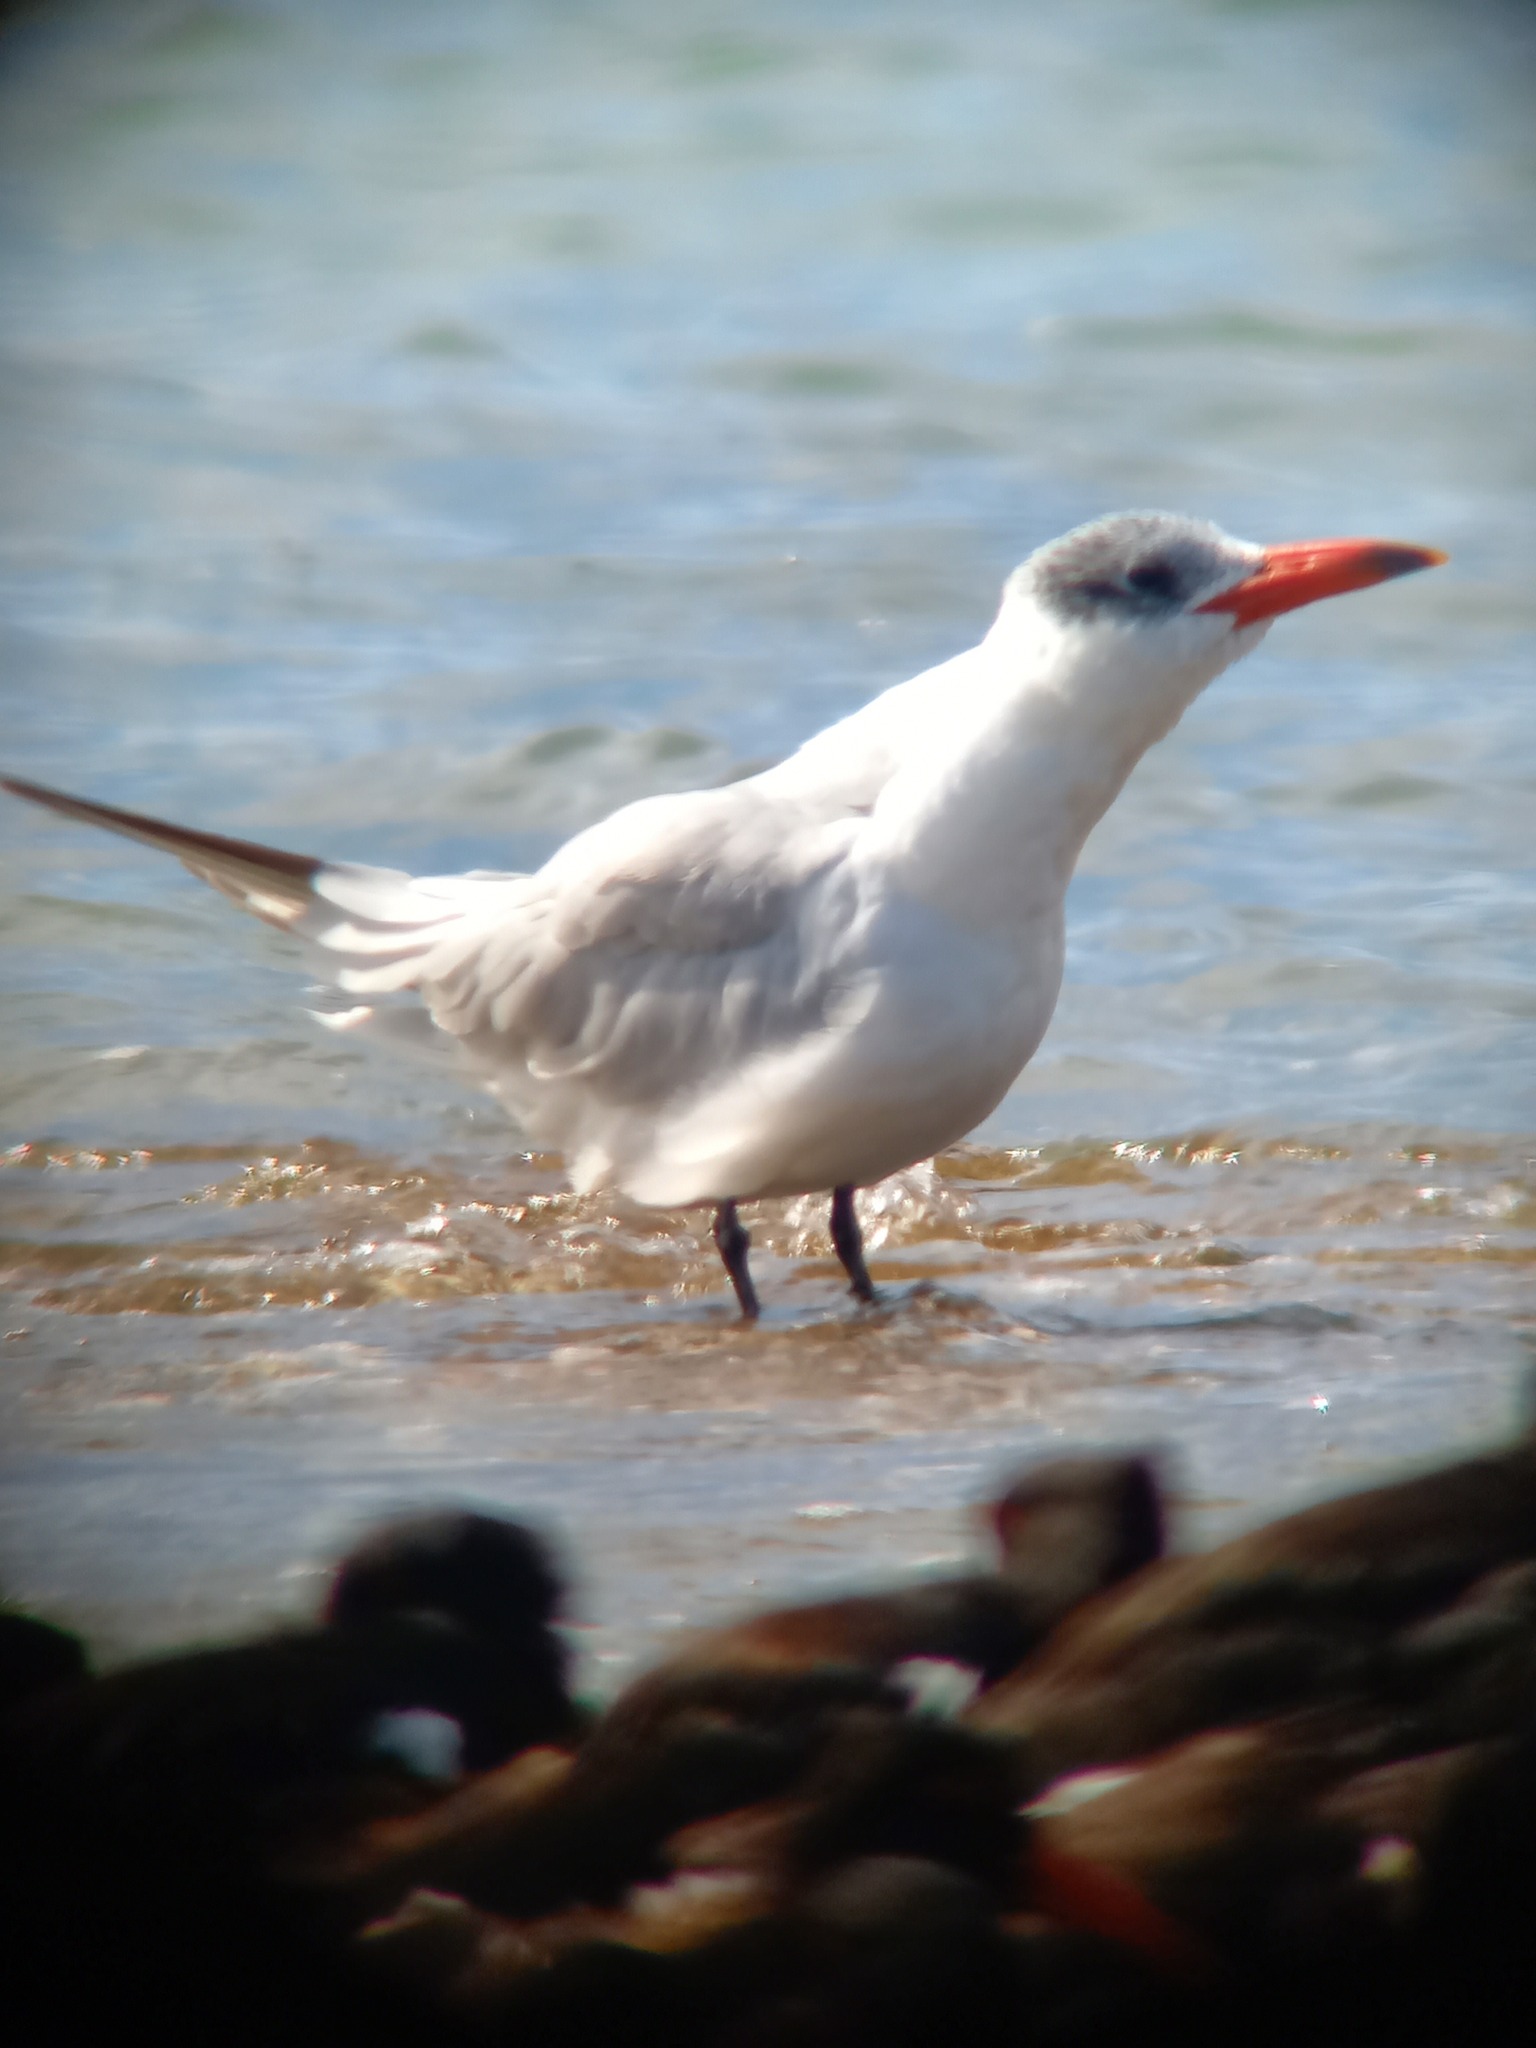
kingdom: Animalia
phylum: Chordata
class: Aves
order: Charadriiformes
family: Laridae
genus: Hydroprogne
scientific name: Hydroprogne caspia
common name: Caspian tern
